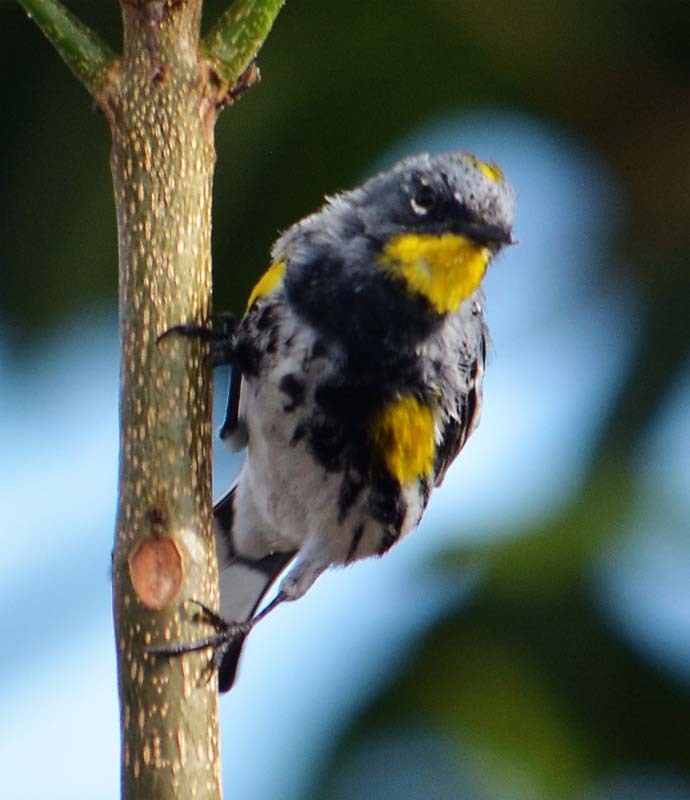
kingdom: Animalia
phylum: Chordata
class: Aves
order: Passeriformes
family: Parulidae
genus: Setophaga
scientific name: Setophaga auduboni
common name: Audubon's warbler
